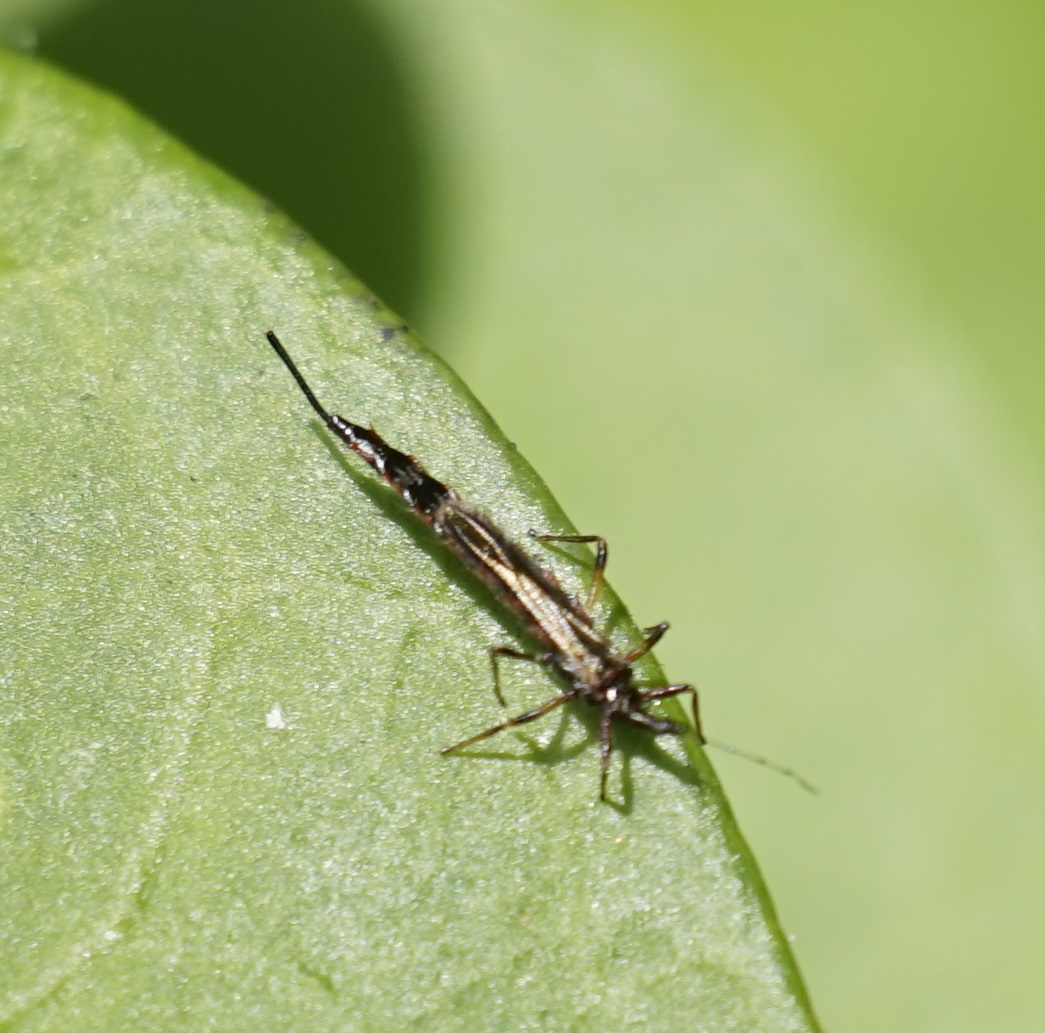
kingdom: Animalia
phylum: Arthropoda
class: Insecta
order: Thysanoptera
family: Phlaeothripidae
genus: Idolothrips
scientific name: Idolothrips spectrum
